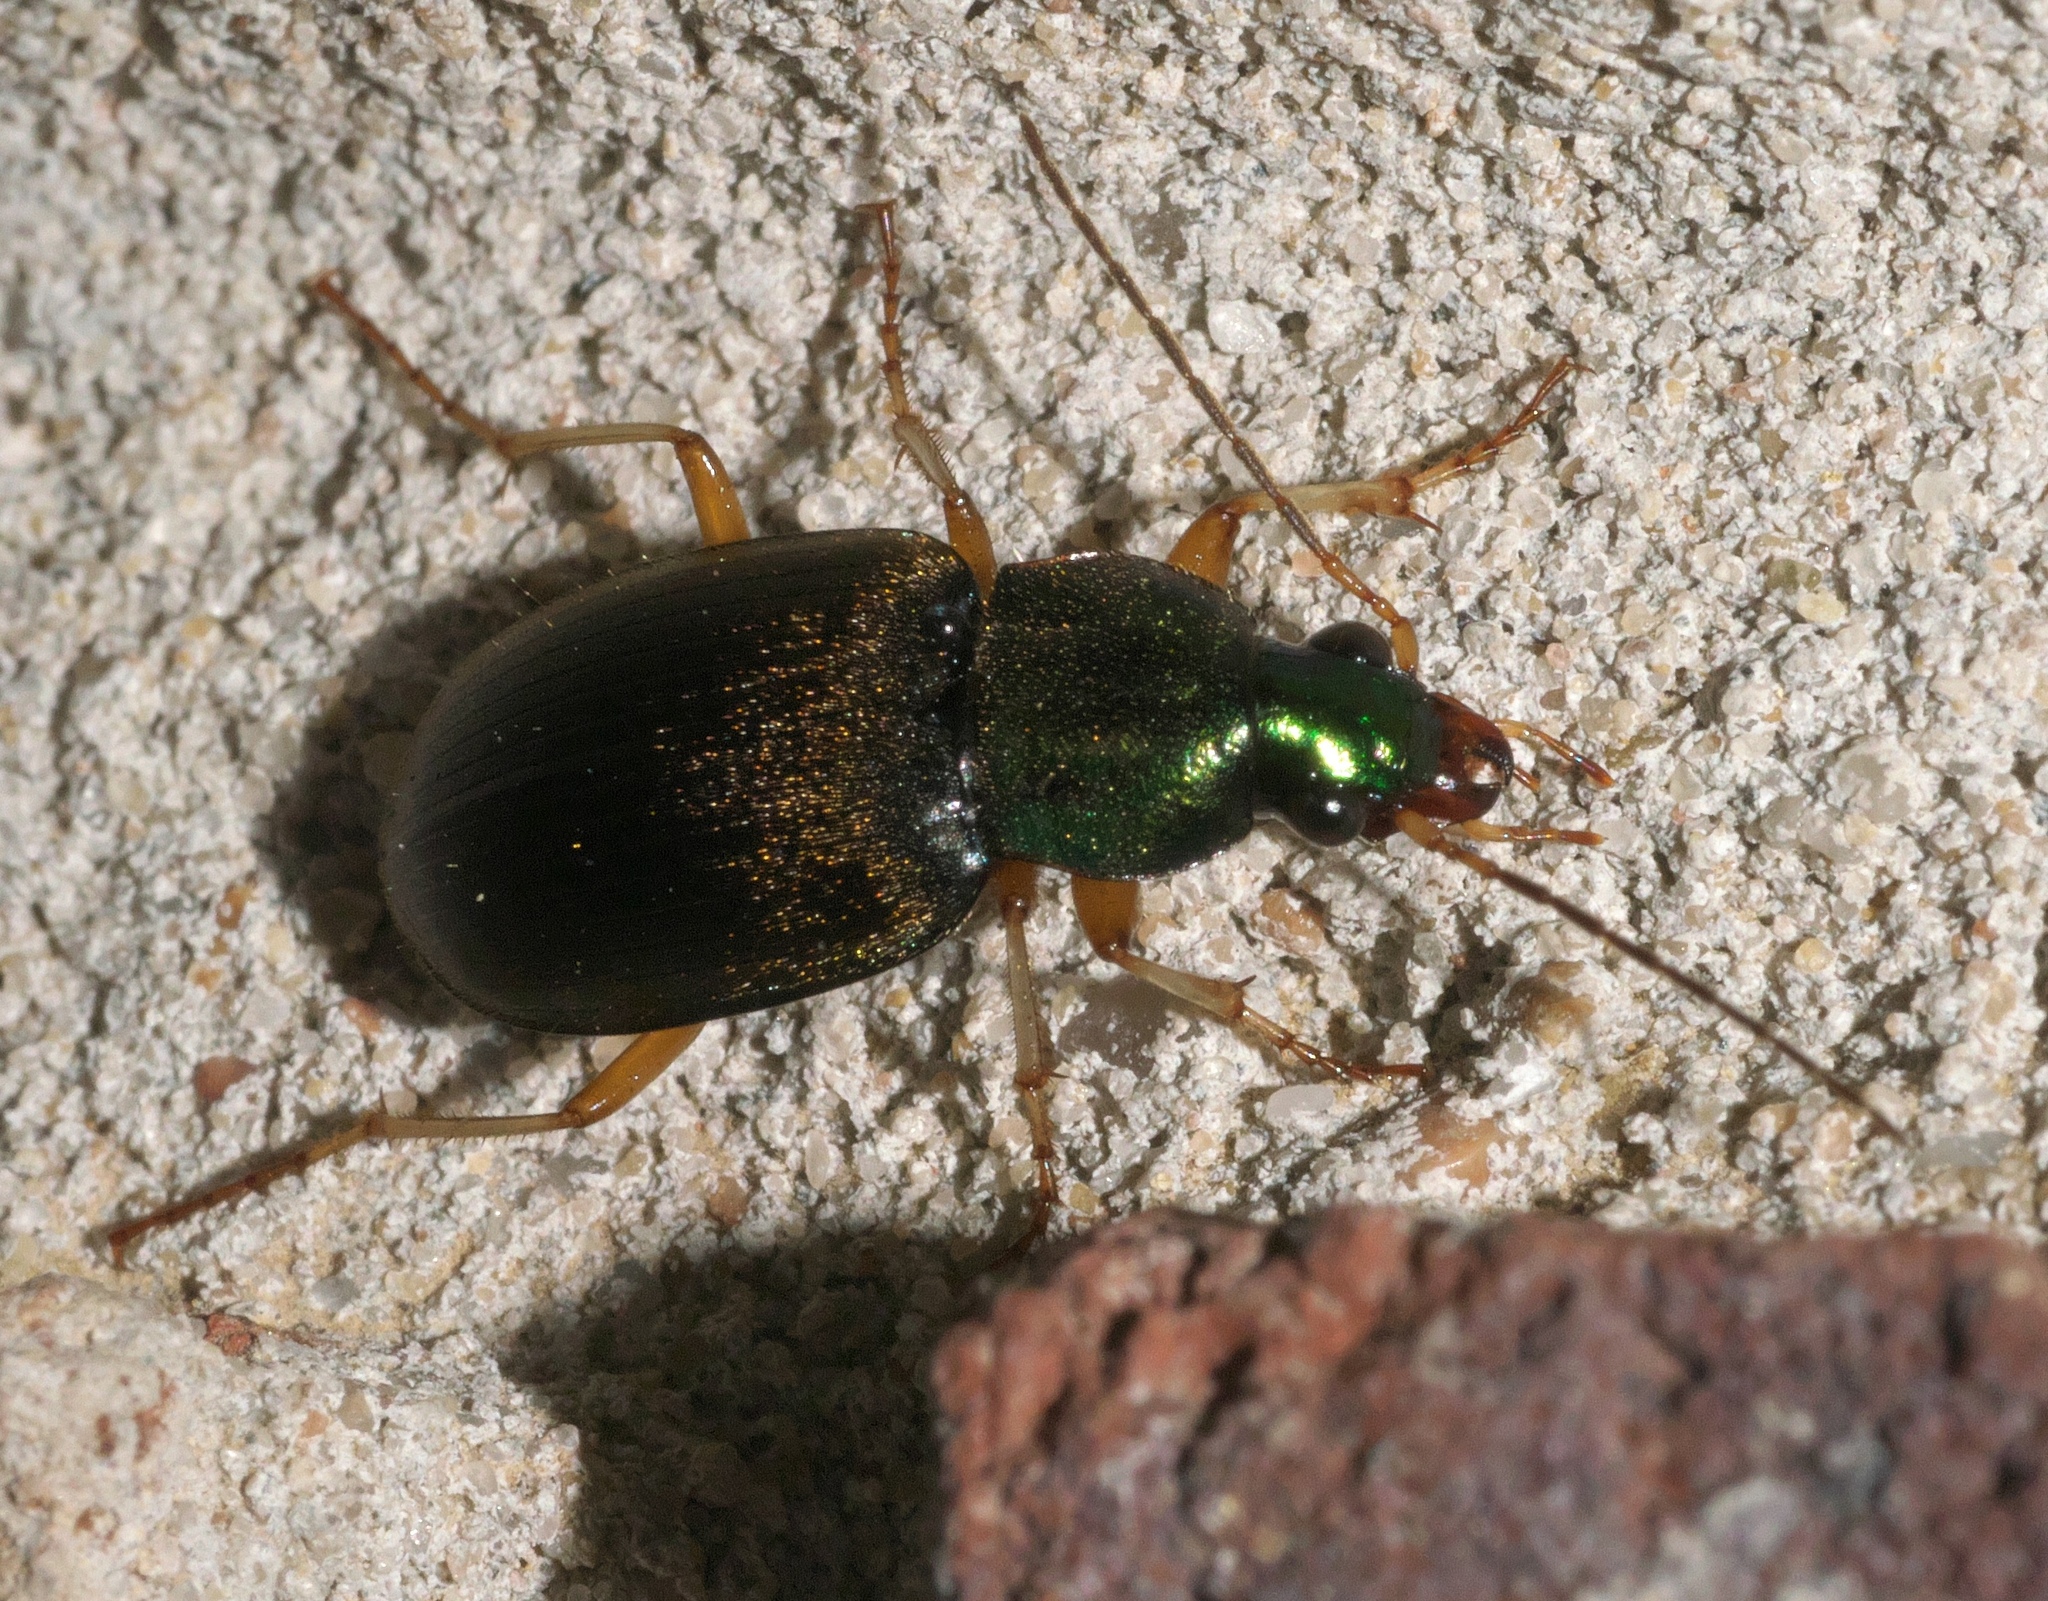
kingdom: Animalia
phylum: Arthropoda
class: Insecta
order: Coleoptera
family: Carabidae
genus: Chlaenius
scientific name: Chlaenius pusillus
